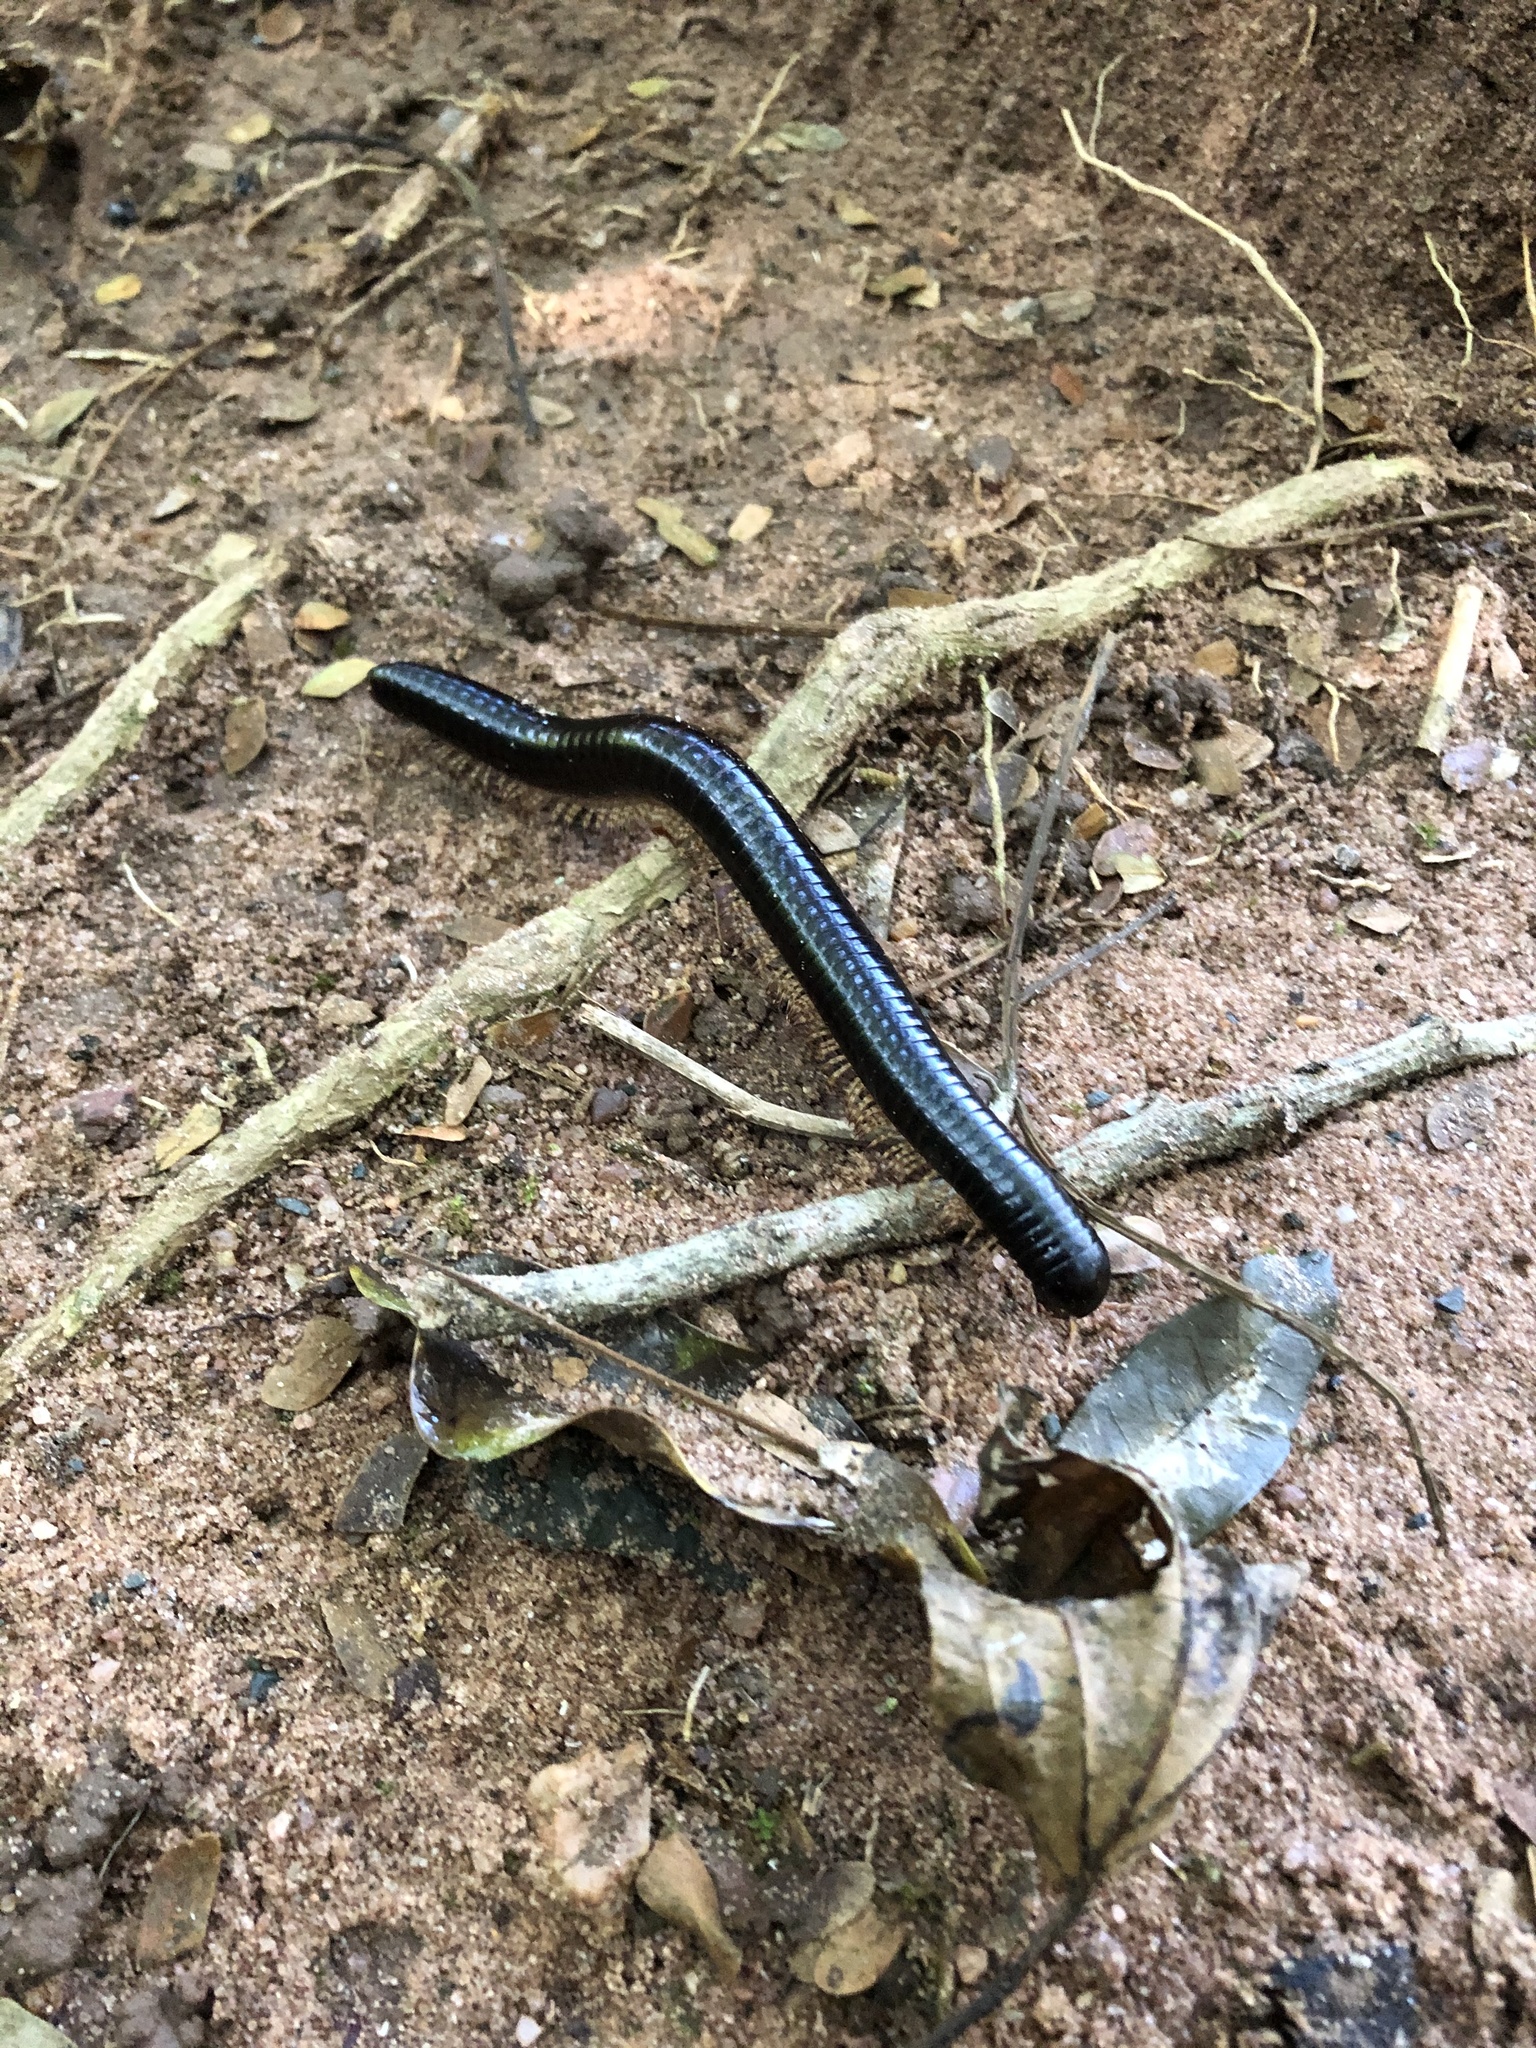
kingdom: Animalia
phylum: Arthropoda
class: Diplopoda
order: Spirostreptida
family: Spirostreptidae
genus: Doratogonus
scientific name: Doratogonus infragilis
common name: Strong black millipede
